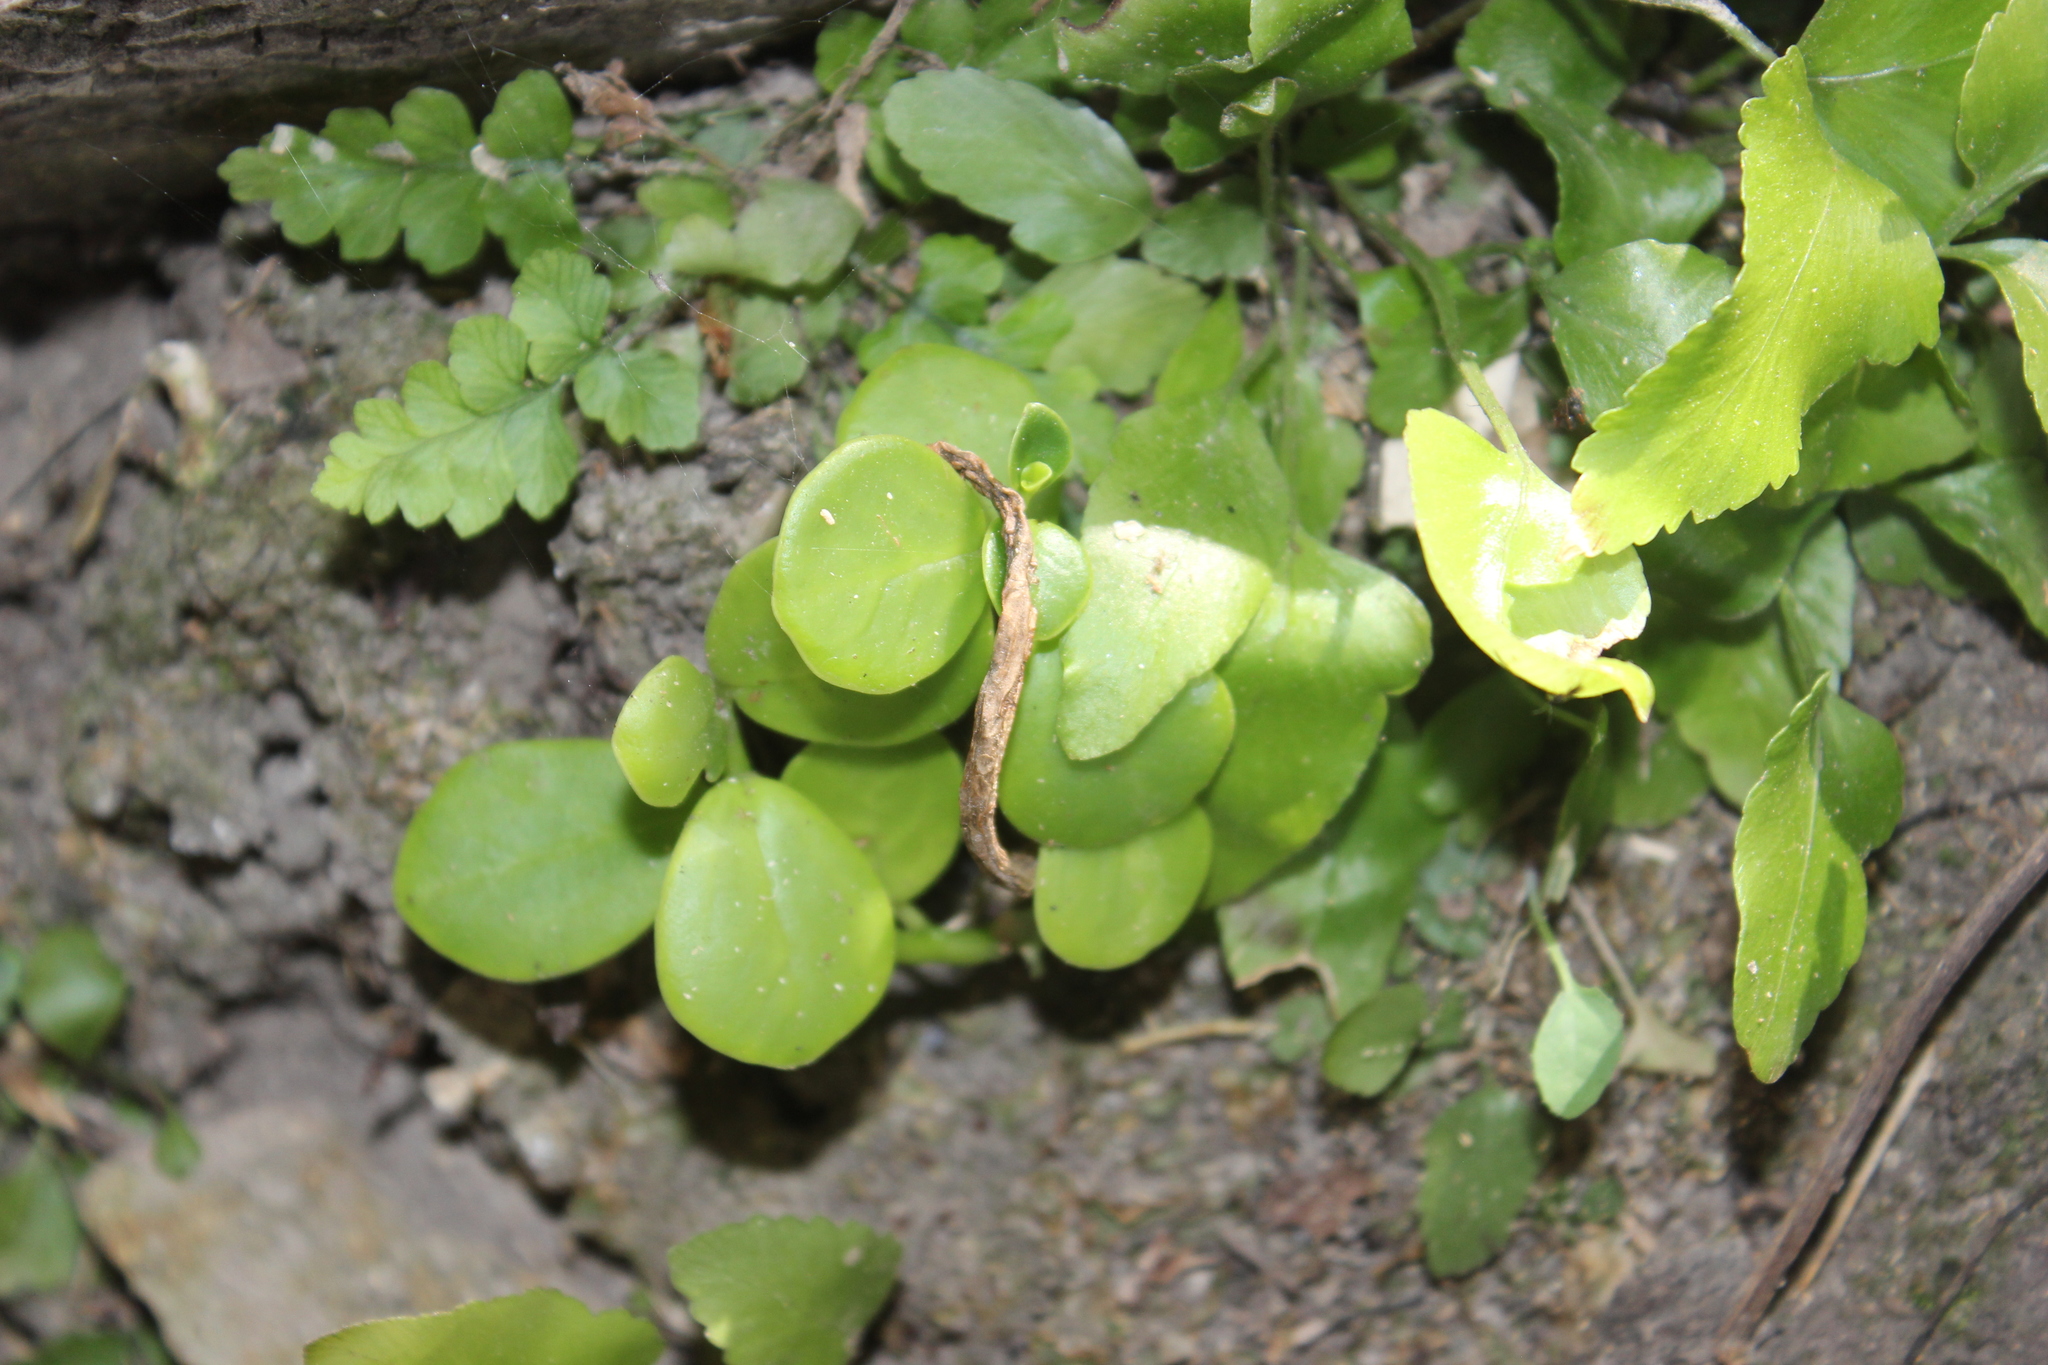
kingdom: Plantae
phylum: Tracheophyta
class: Magnoliopsida
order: Piperales
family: Piperaceae
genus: Peperomia
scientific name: Peperomia urvilleana
